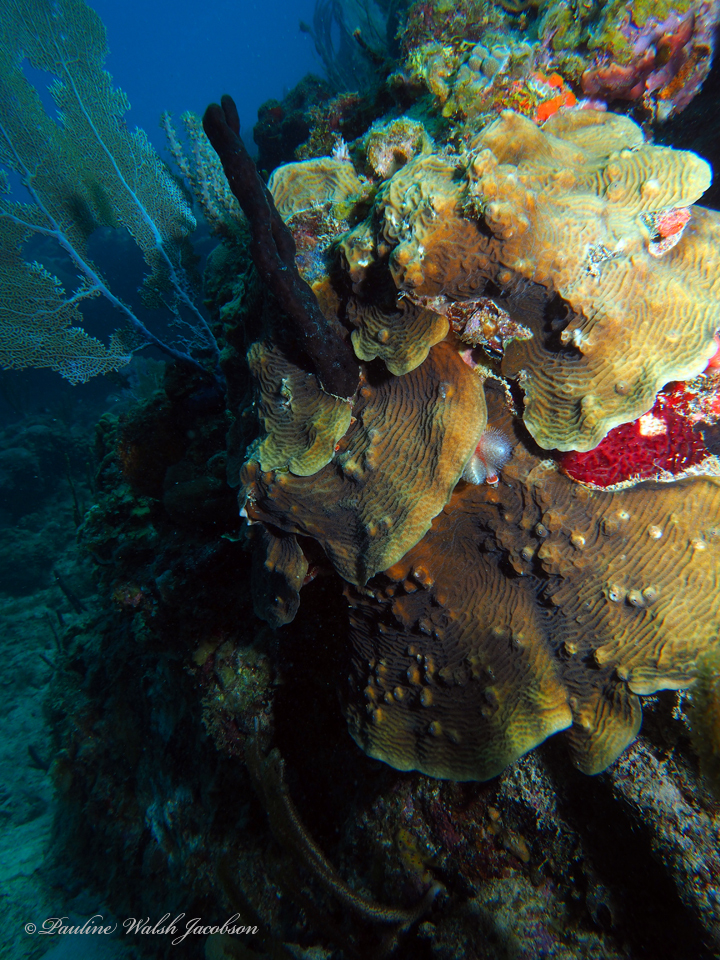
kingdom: Animalia
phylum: Cnidaria
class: Anthozoa
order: Scleractinia
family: Agariciidae
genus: Agaricia
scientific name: Agaricia agaricites
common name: Lettuce coral
